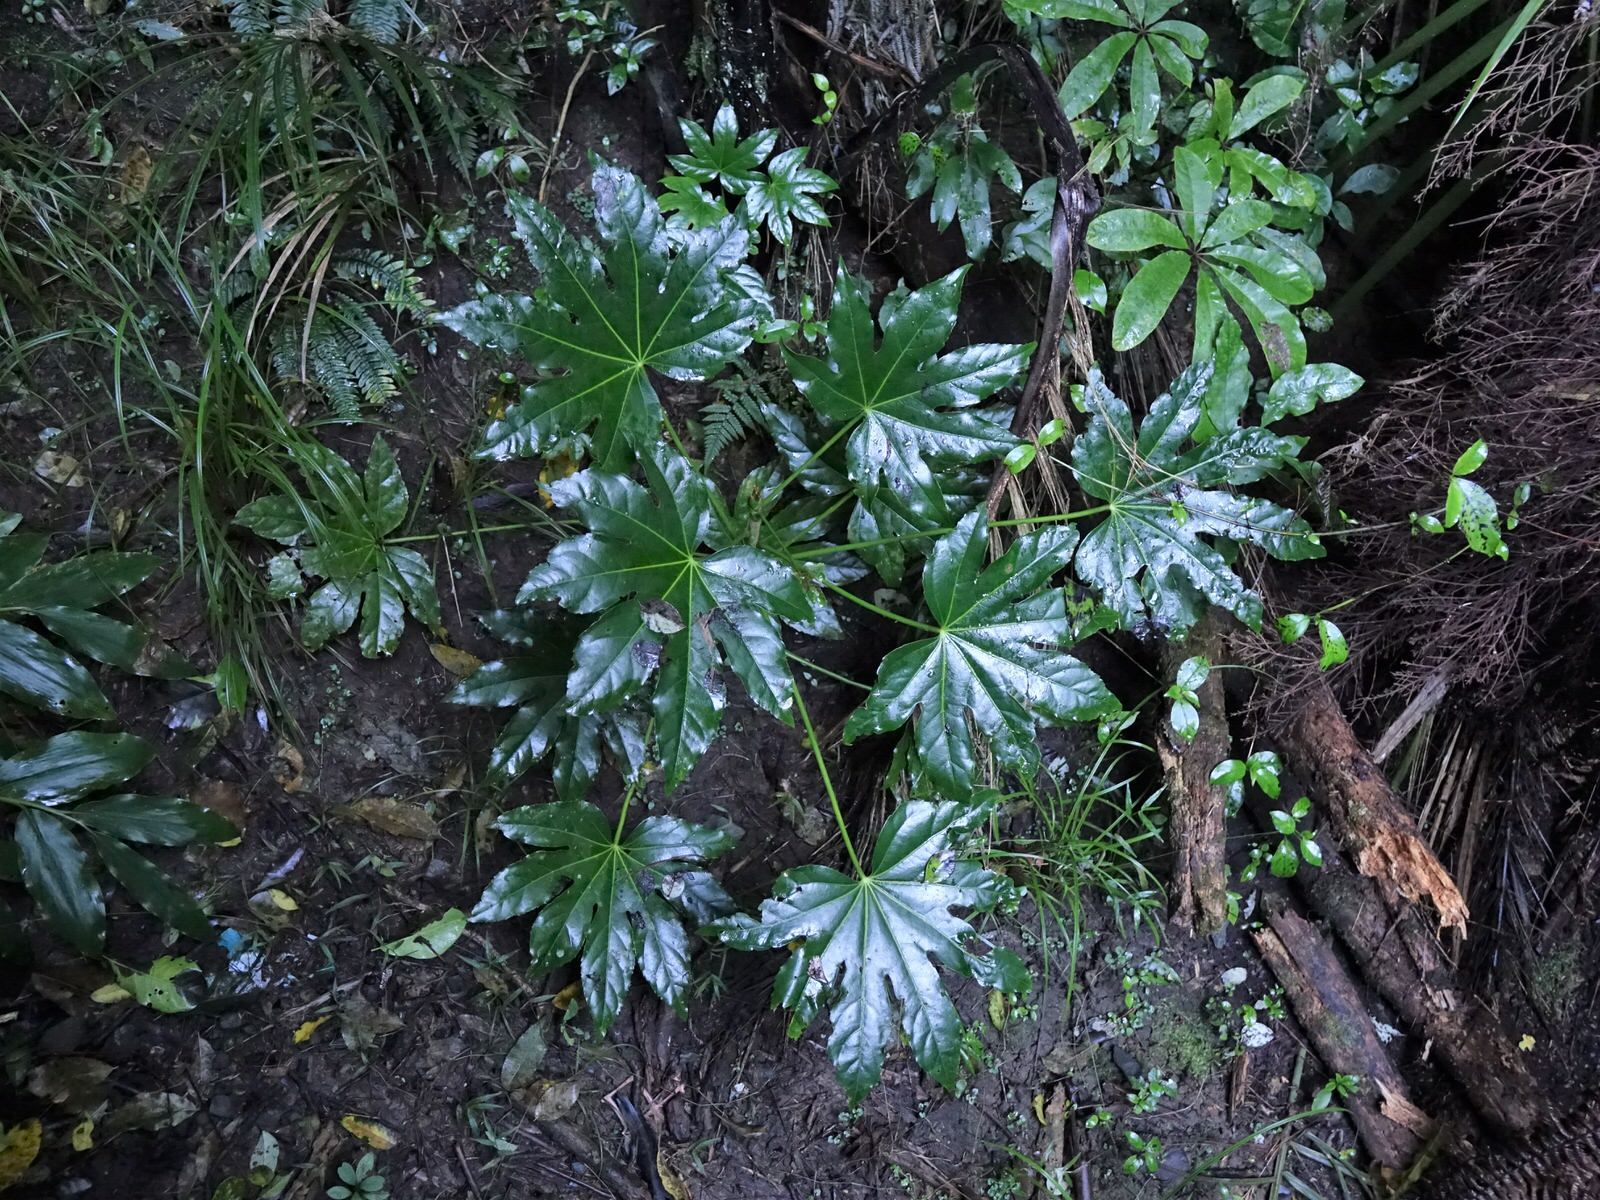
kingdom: Plantae
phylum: Tracheophyta
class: Magnoliopsida
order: Apiales
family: Araliaceae
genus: Fatsia
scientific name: Fatsia japonica
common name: Fatsia
